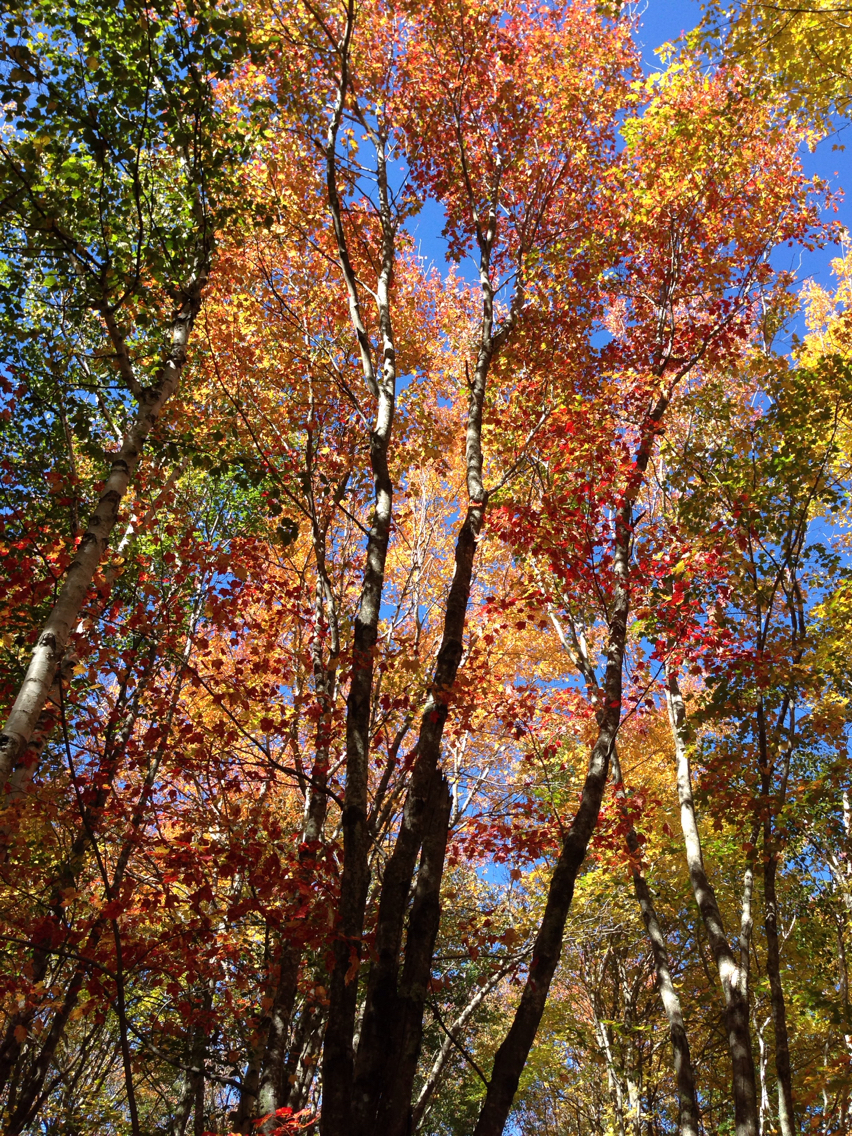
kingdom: Plantae
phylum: Tracheophyta
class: Magnoliopsida
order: Sapindales
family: Sapindaceae
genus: Acer
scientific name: Acer rubrum
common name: Red maple
